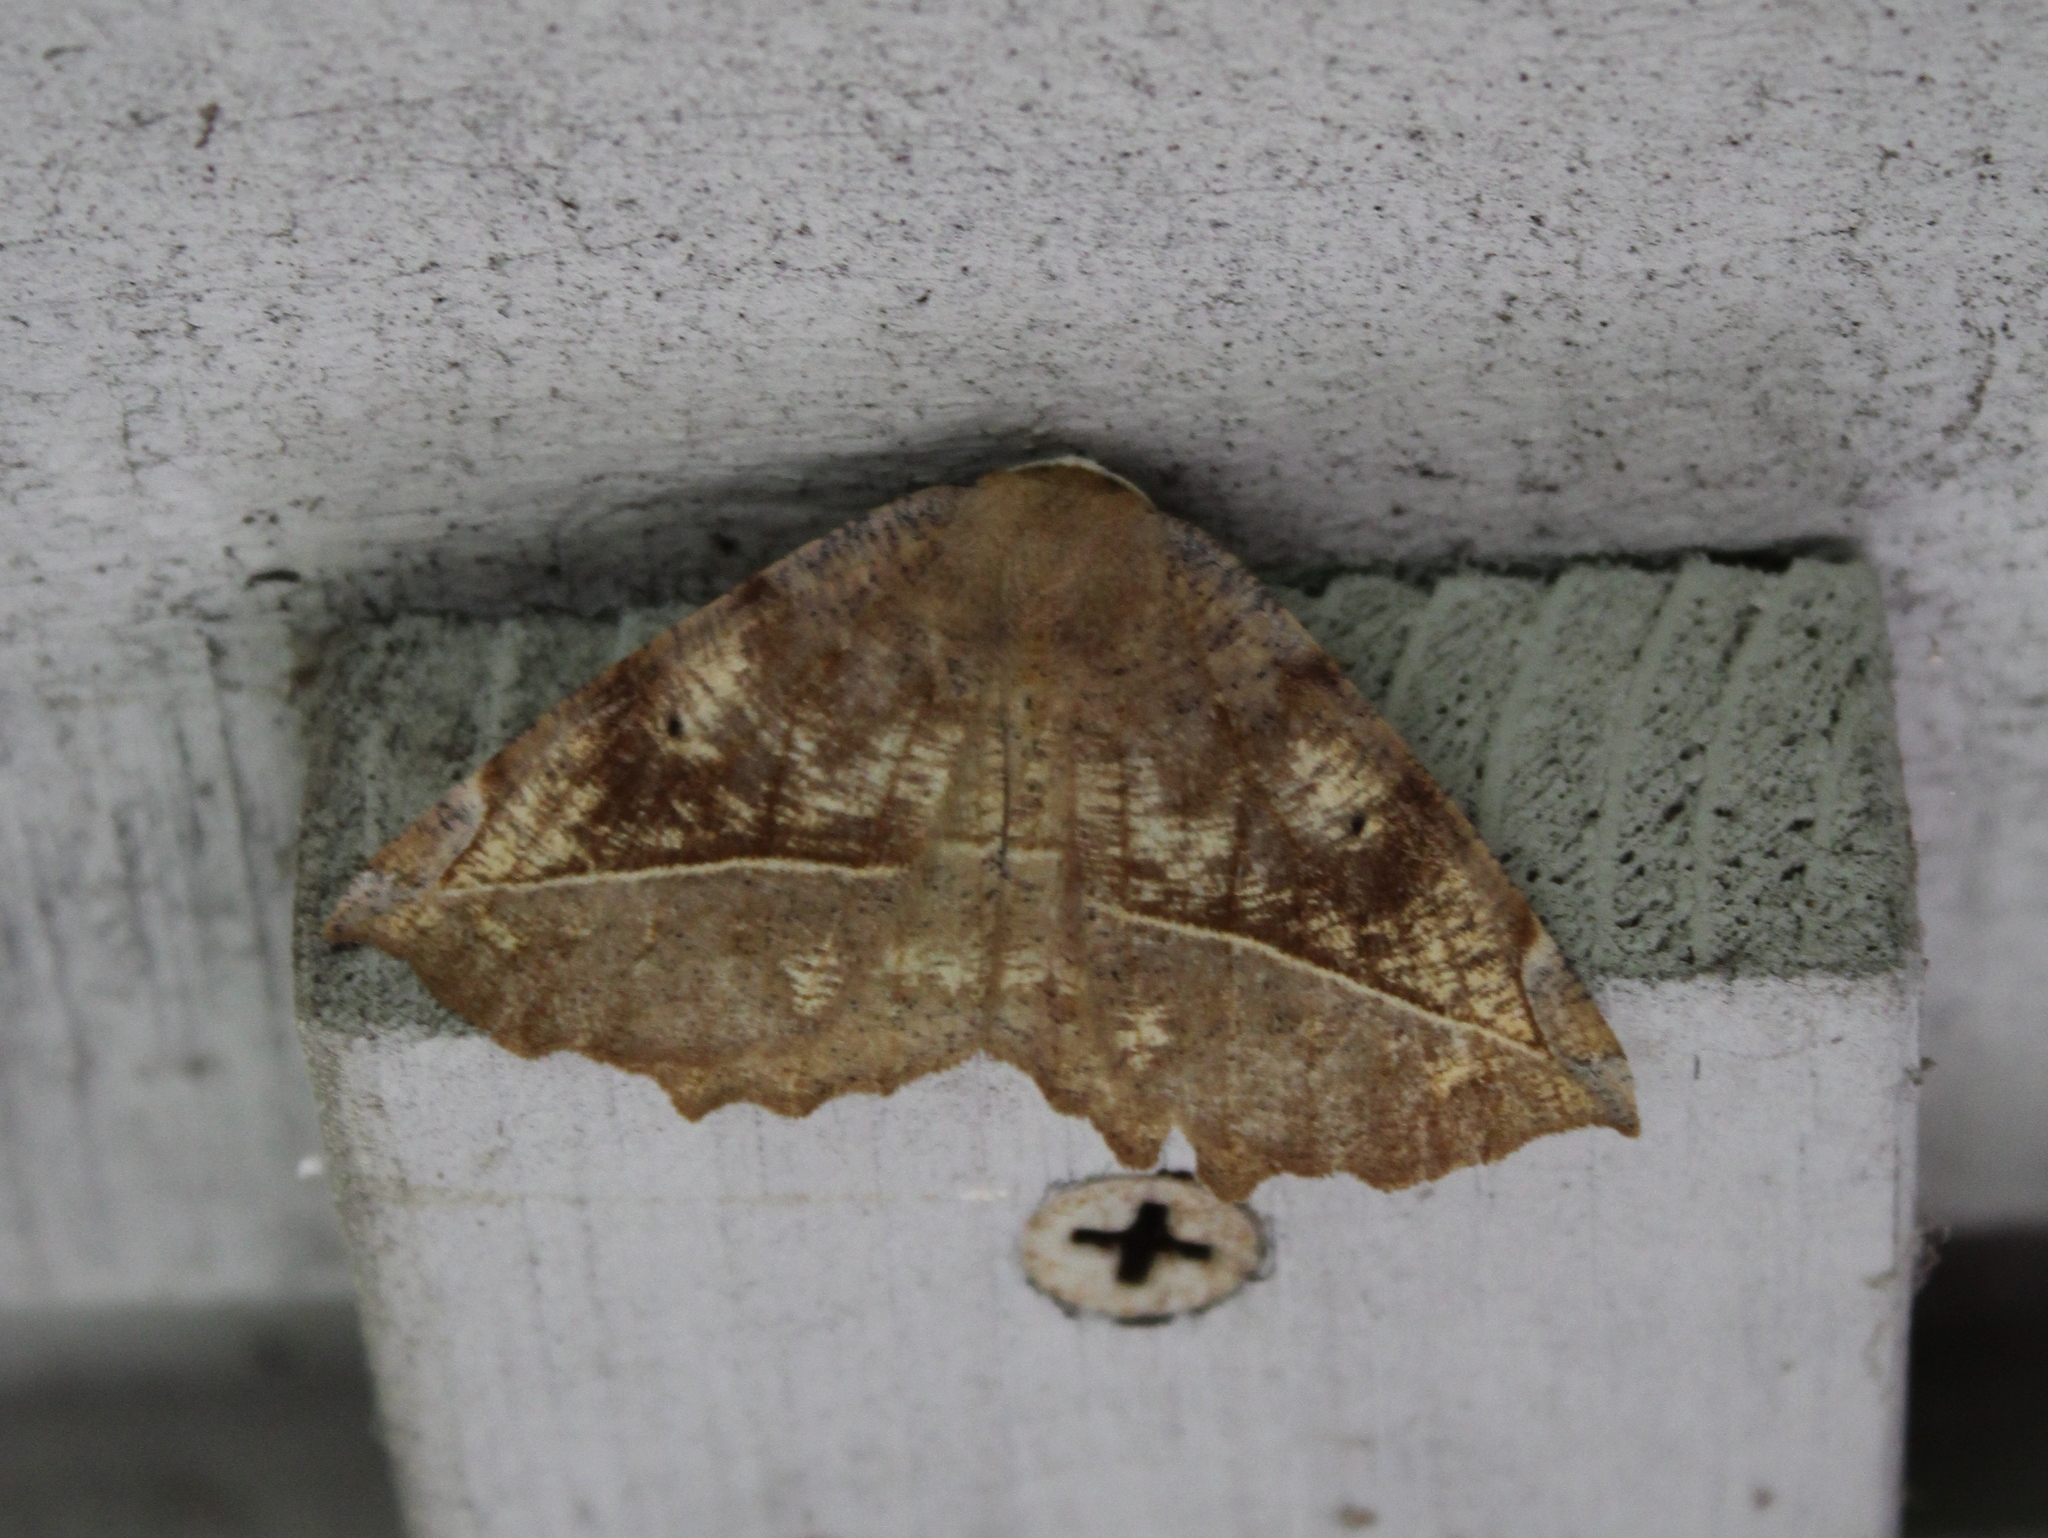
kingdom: Animalia
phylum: Arthropoda
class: Insecta
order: Lepidoptera
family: Geometridae
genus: Eutrapela
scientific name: Eutrapela clemataria
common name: Curved-toothed geometer
